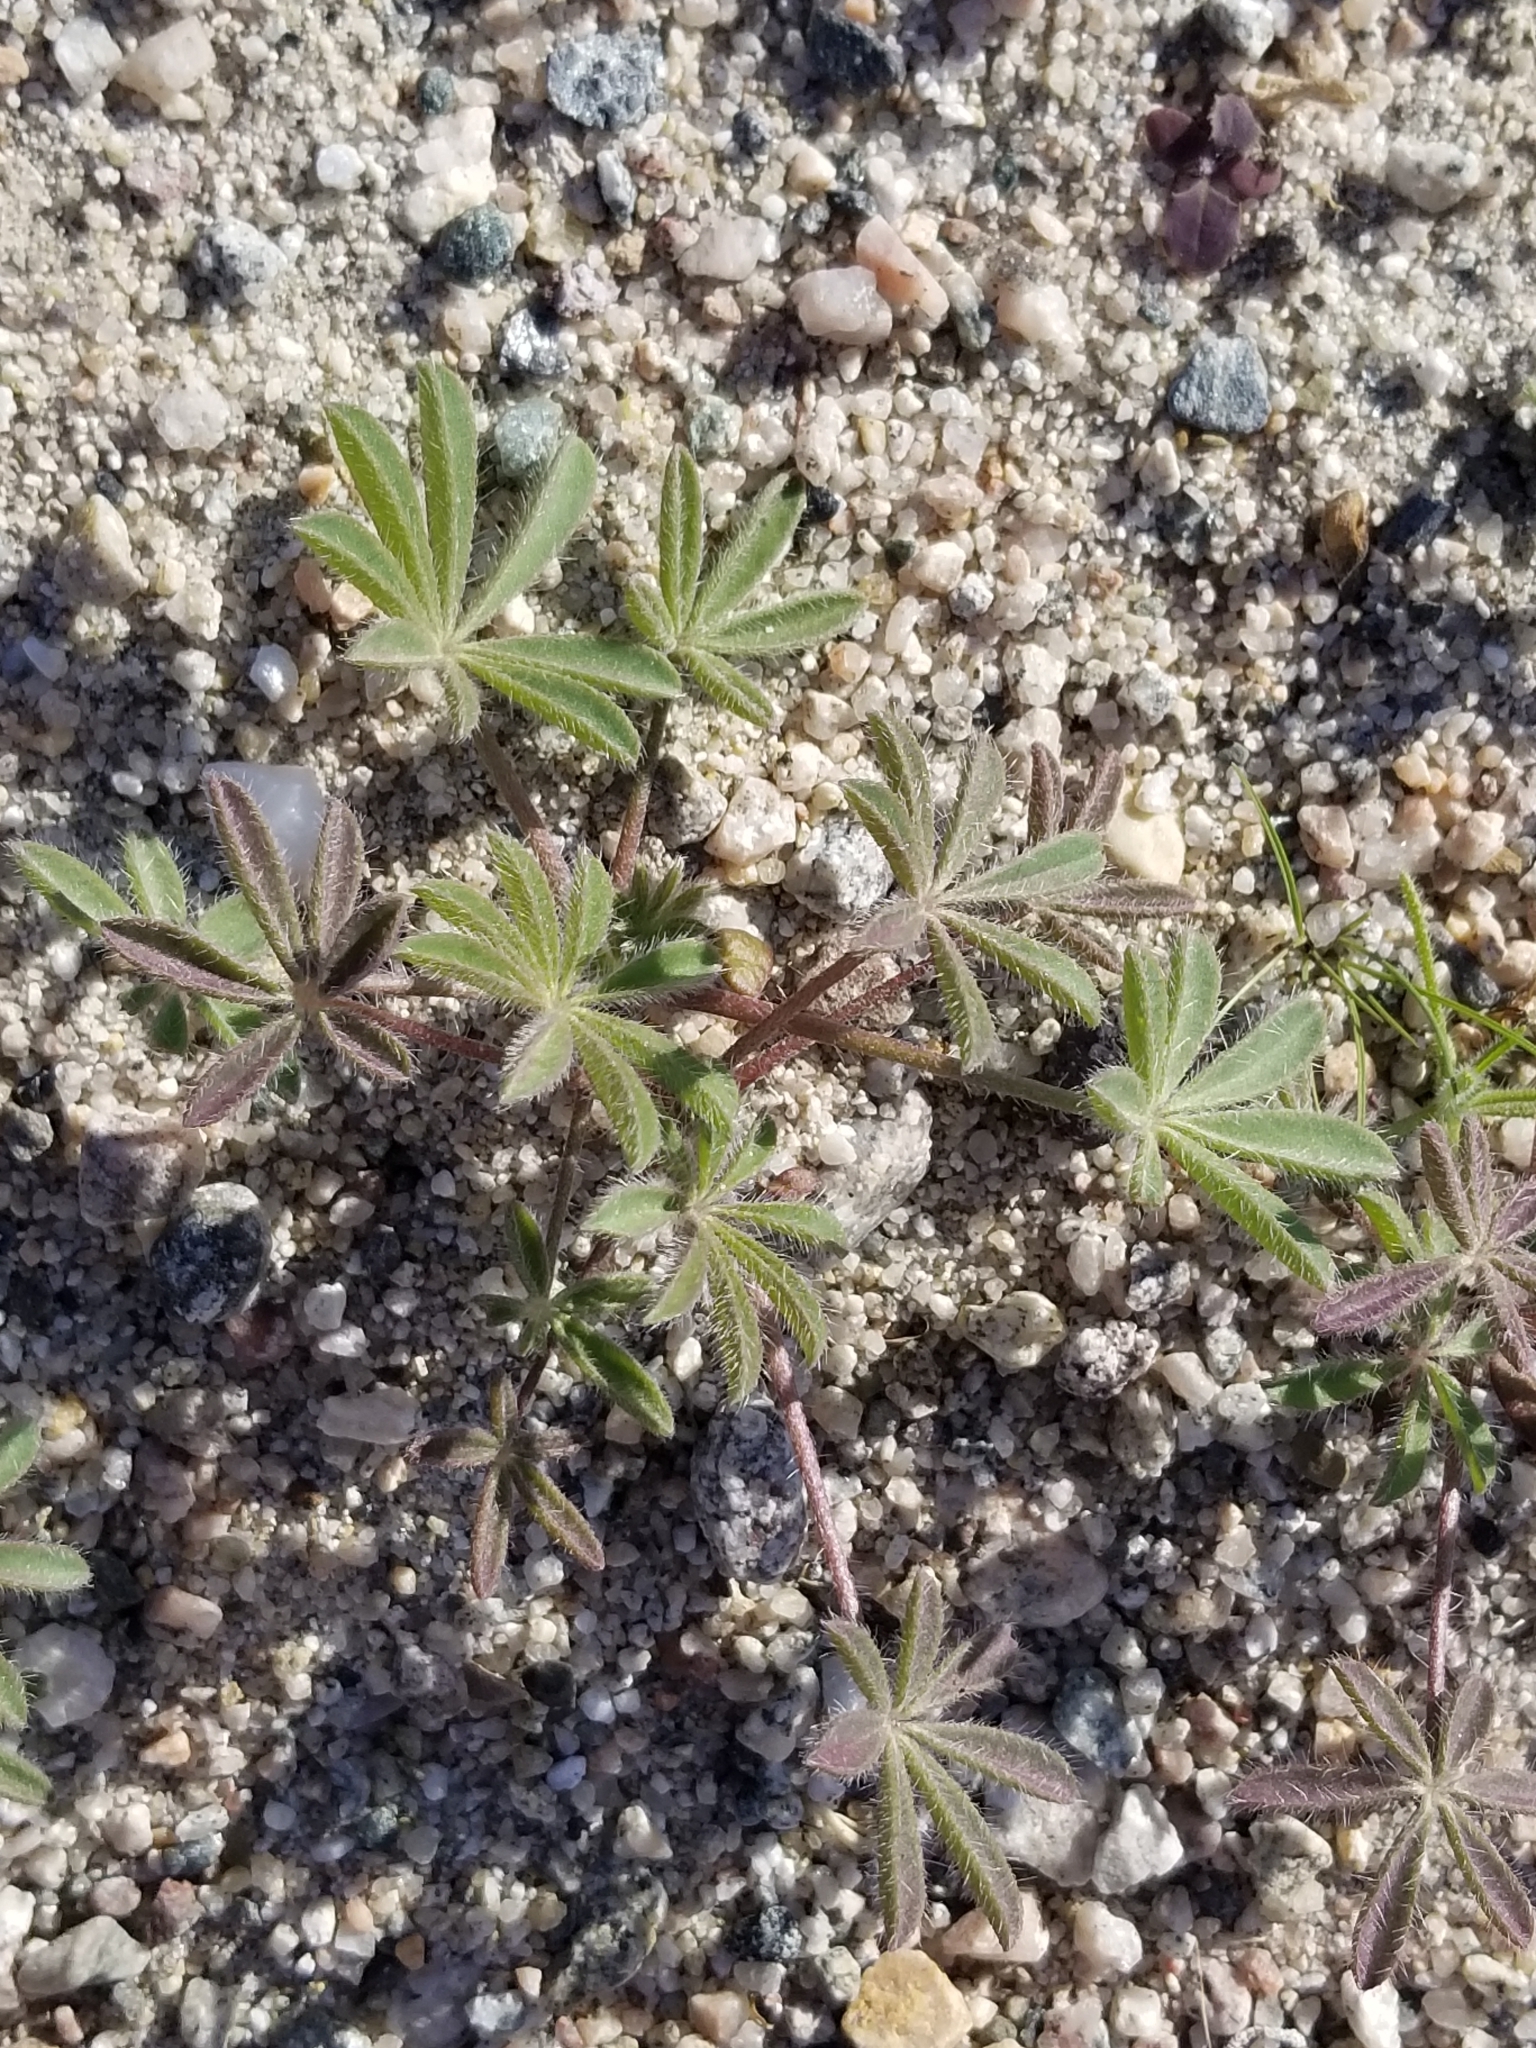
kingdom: Plantae
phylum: Tracheophyta
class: Magnoliopsida
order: Fabales
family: Fabaceae
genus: Lupinus
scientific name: Lupinus arizonicus
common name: Arizona lupine
